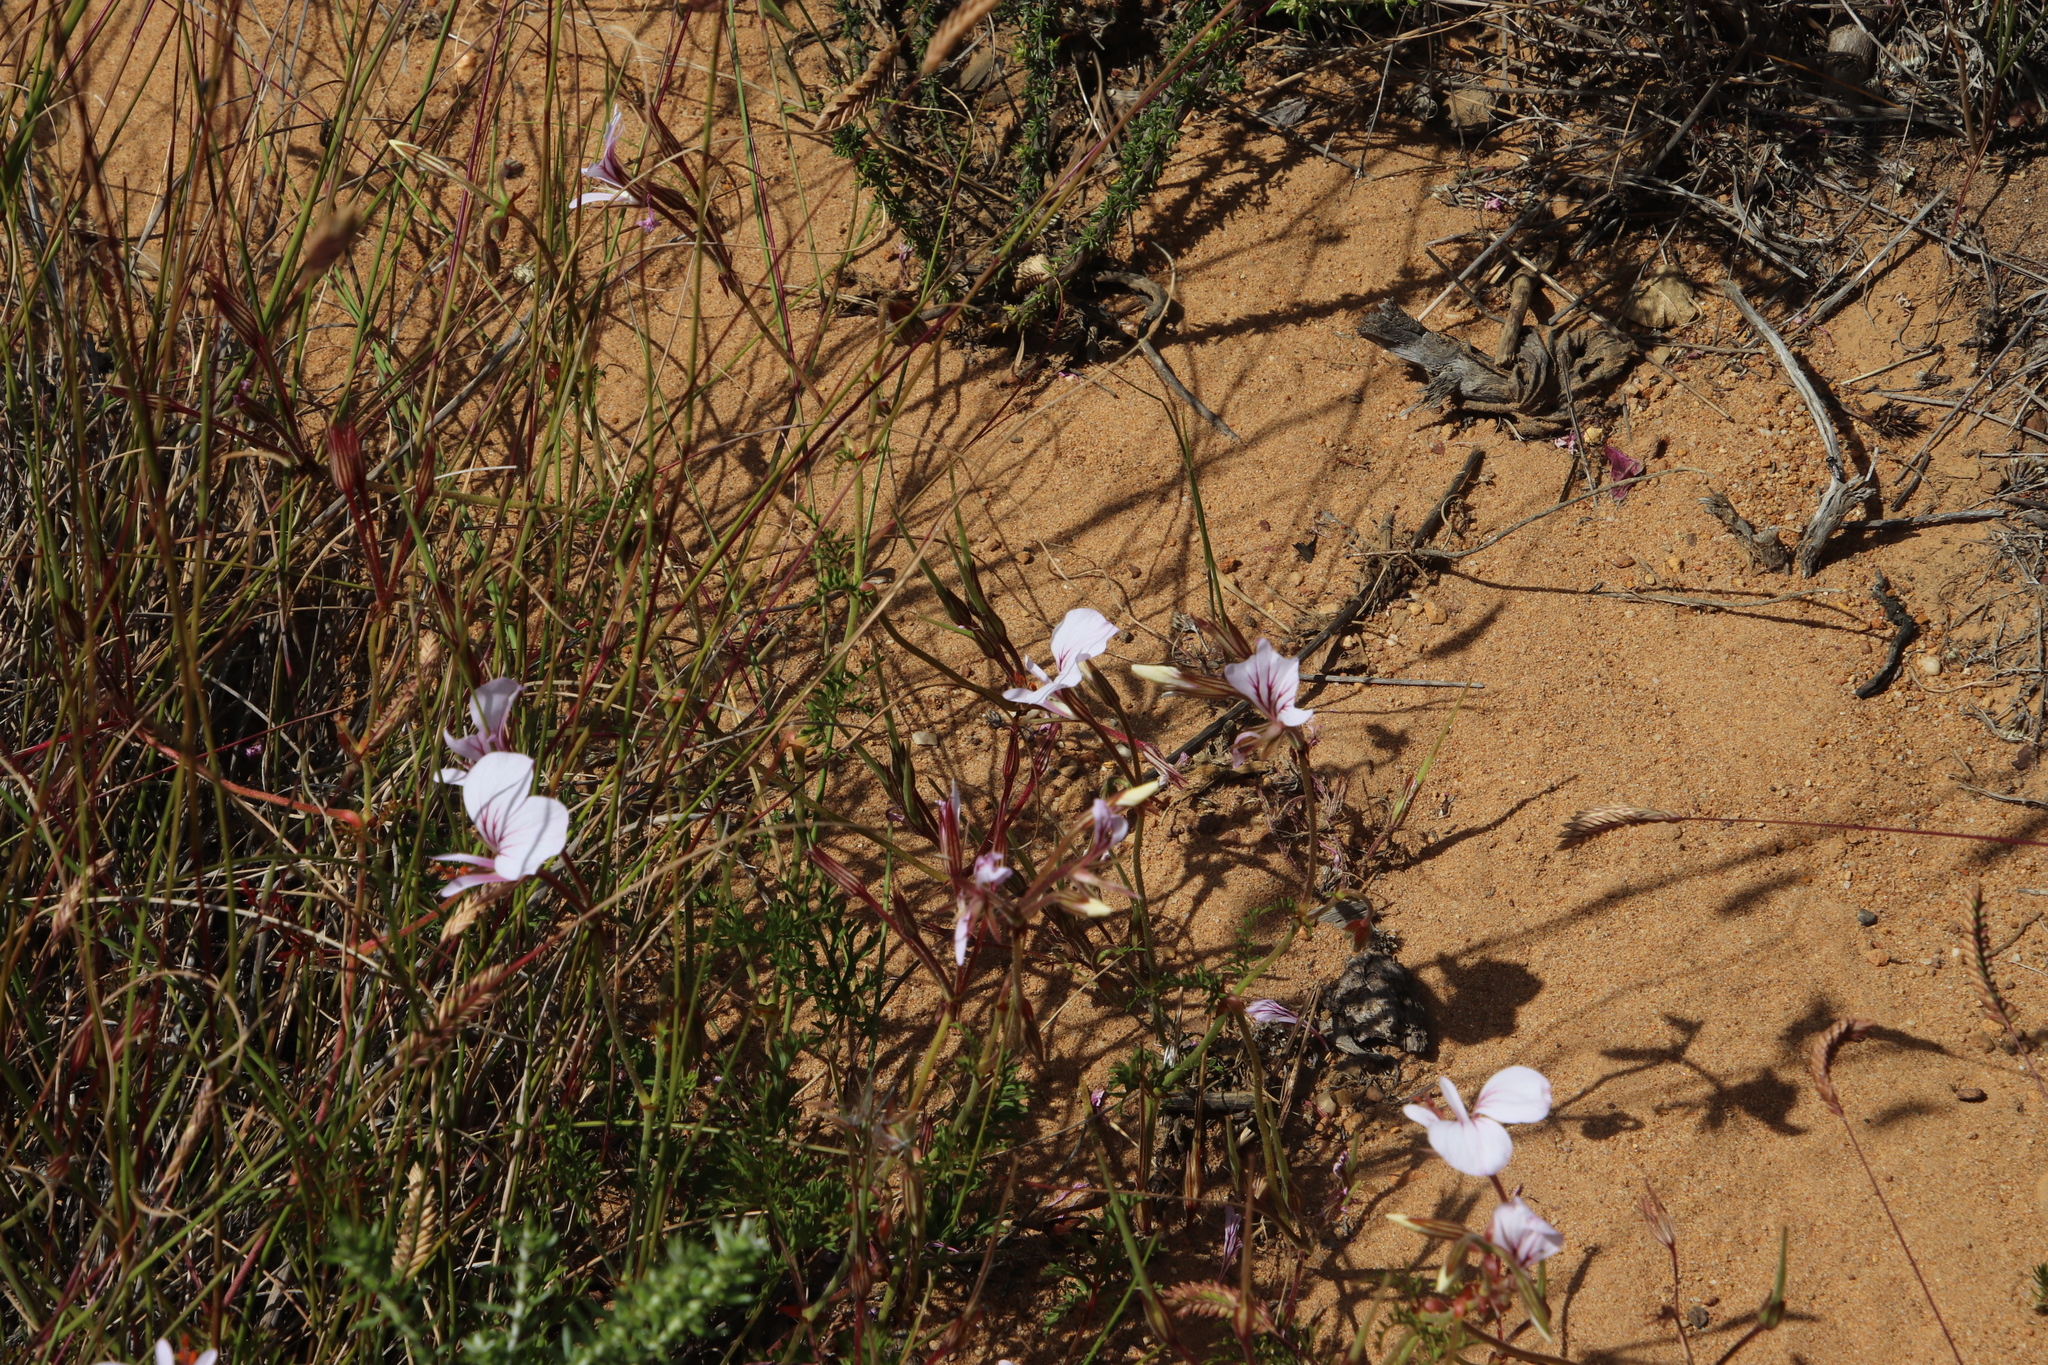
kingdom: Plantae
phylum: Tracheophyta
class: Magnoliopsida
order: Geraniales
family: Geraniaceae
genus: Pelargonium
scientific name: Pelargonium longicaule
